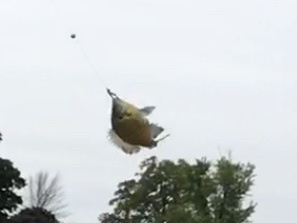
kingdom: Animalia
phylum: Chordata
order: Perciformes
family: Centrarchidae
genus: Lepomis
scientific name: Lepomis macrochirus
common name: Bluegill
